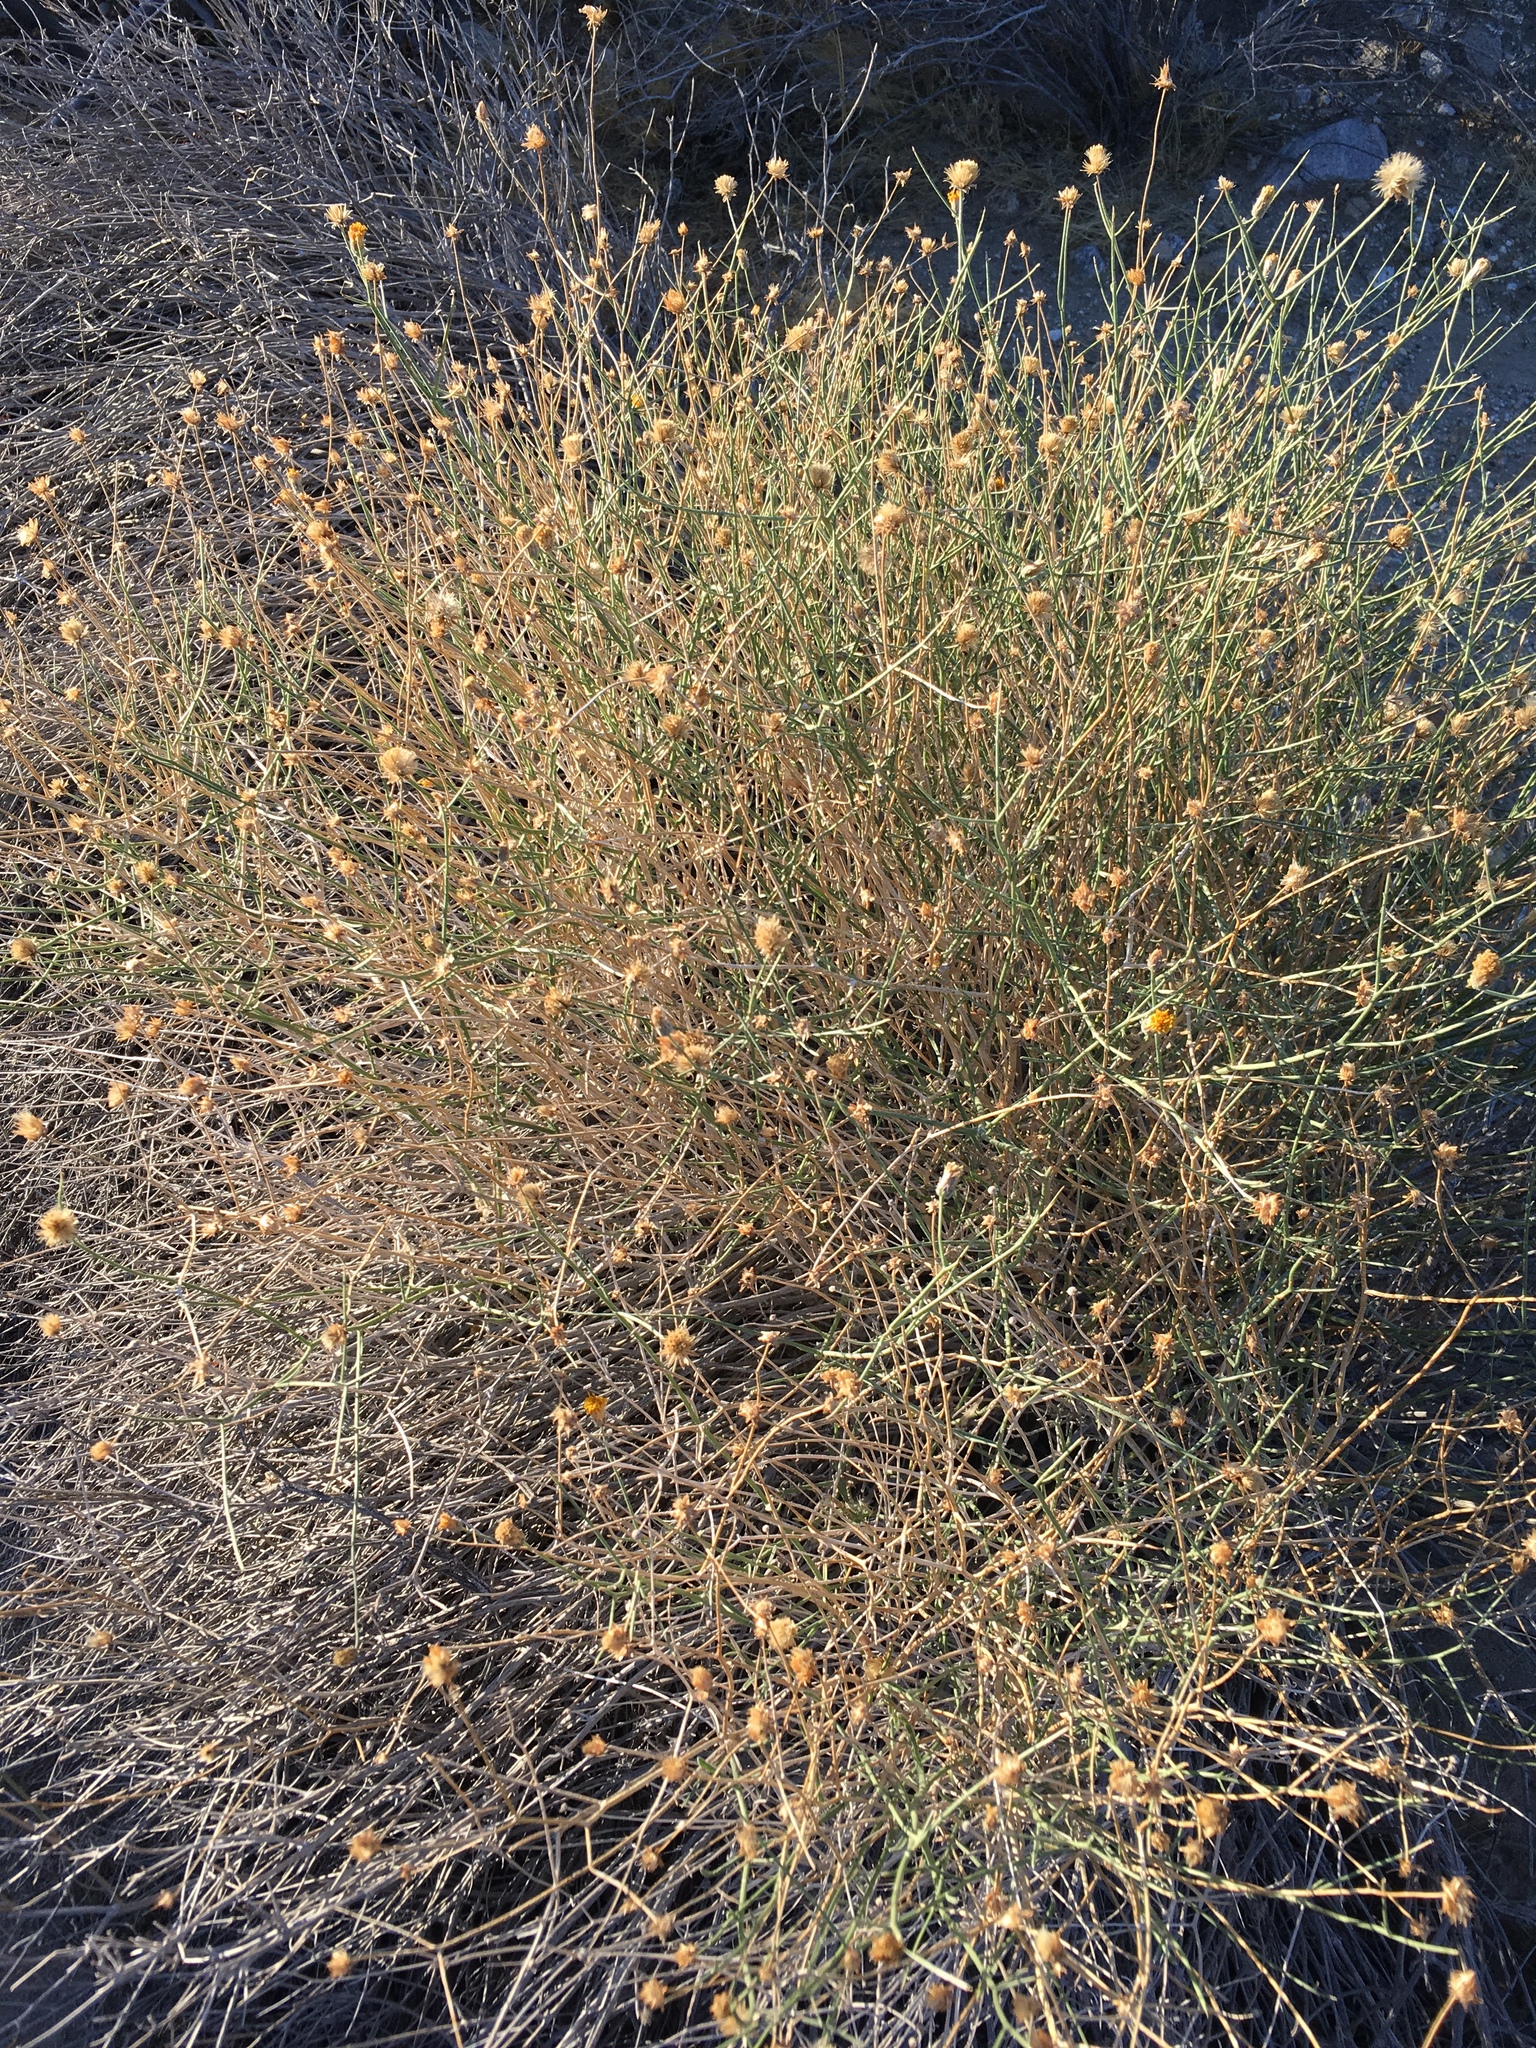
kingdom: Plantae
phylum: Tracheophyta
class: Magnoliopsida
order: Asterales
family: Asteraceae
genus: Bebbia
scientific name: Bebbia juncea
